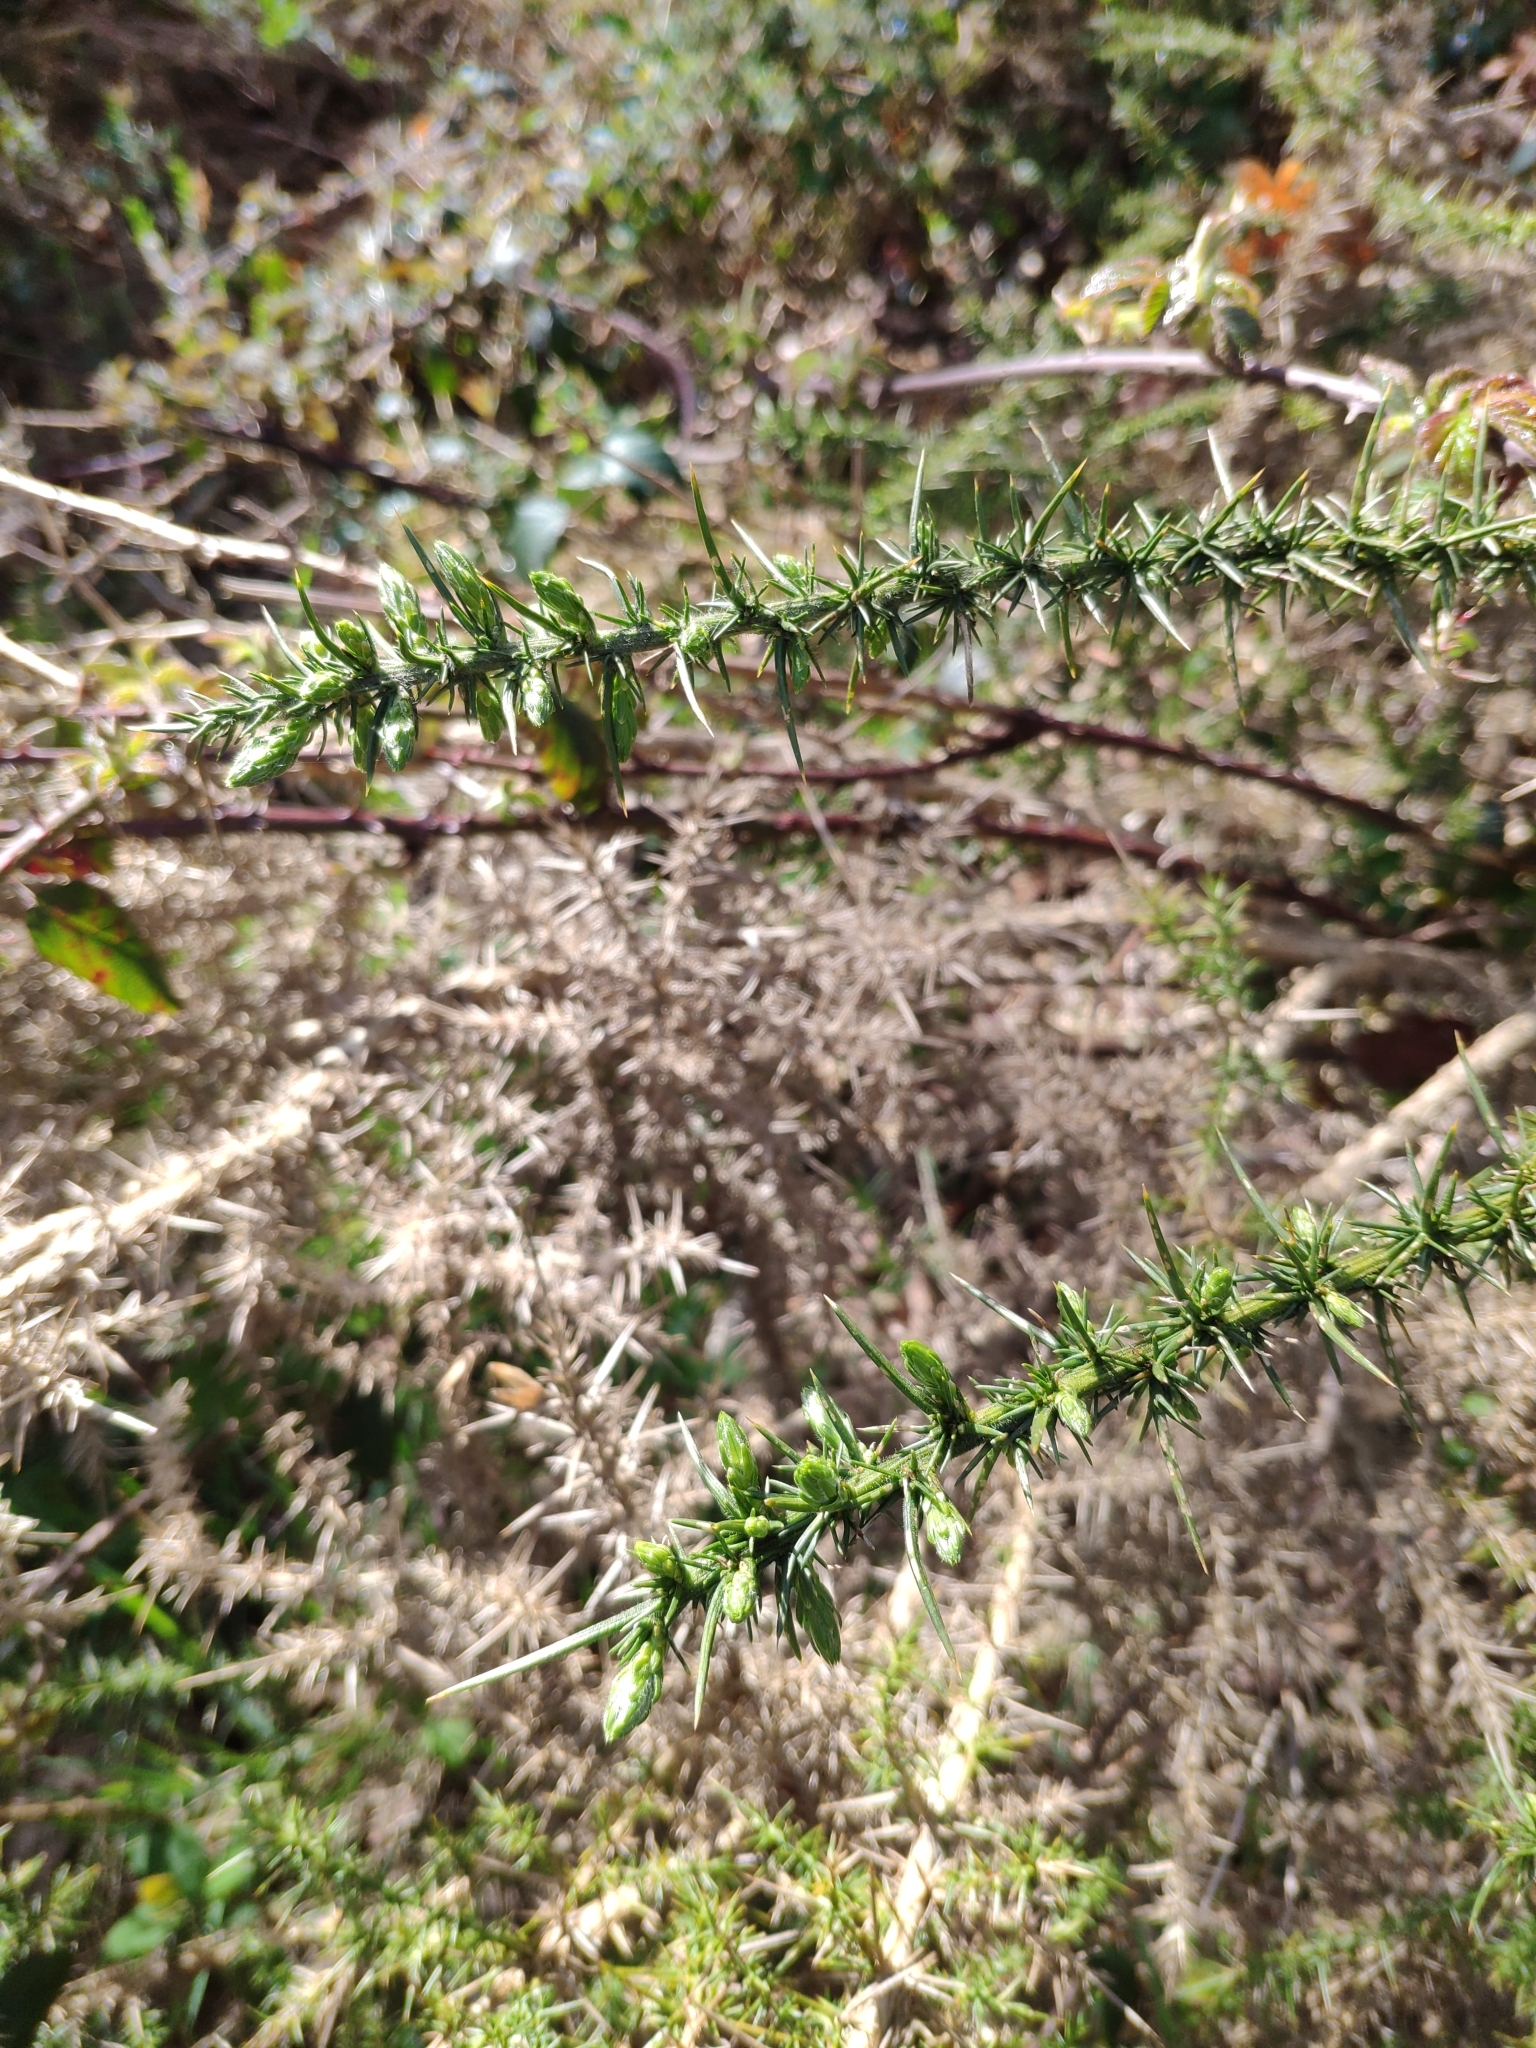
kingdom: Plantae
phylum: Tracheophyta
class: Magnoliopsida
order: Fabales
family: Fabaceae
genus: Ulex
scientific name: Ulex gallii
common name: Western gorse
